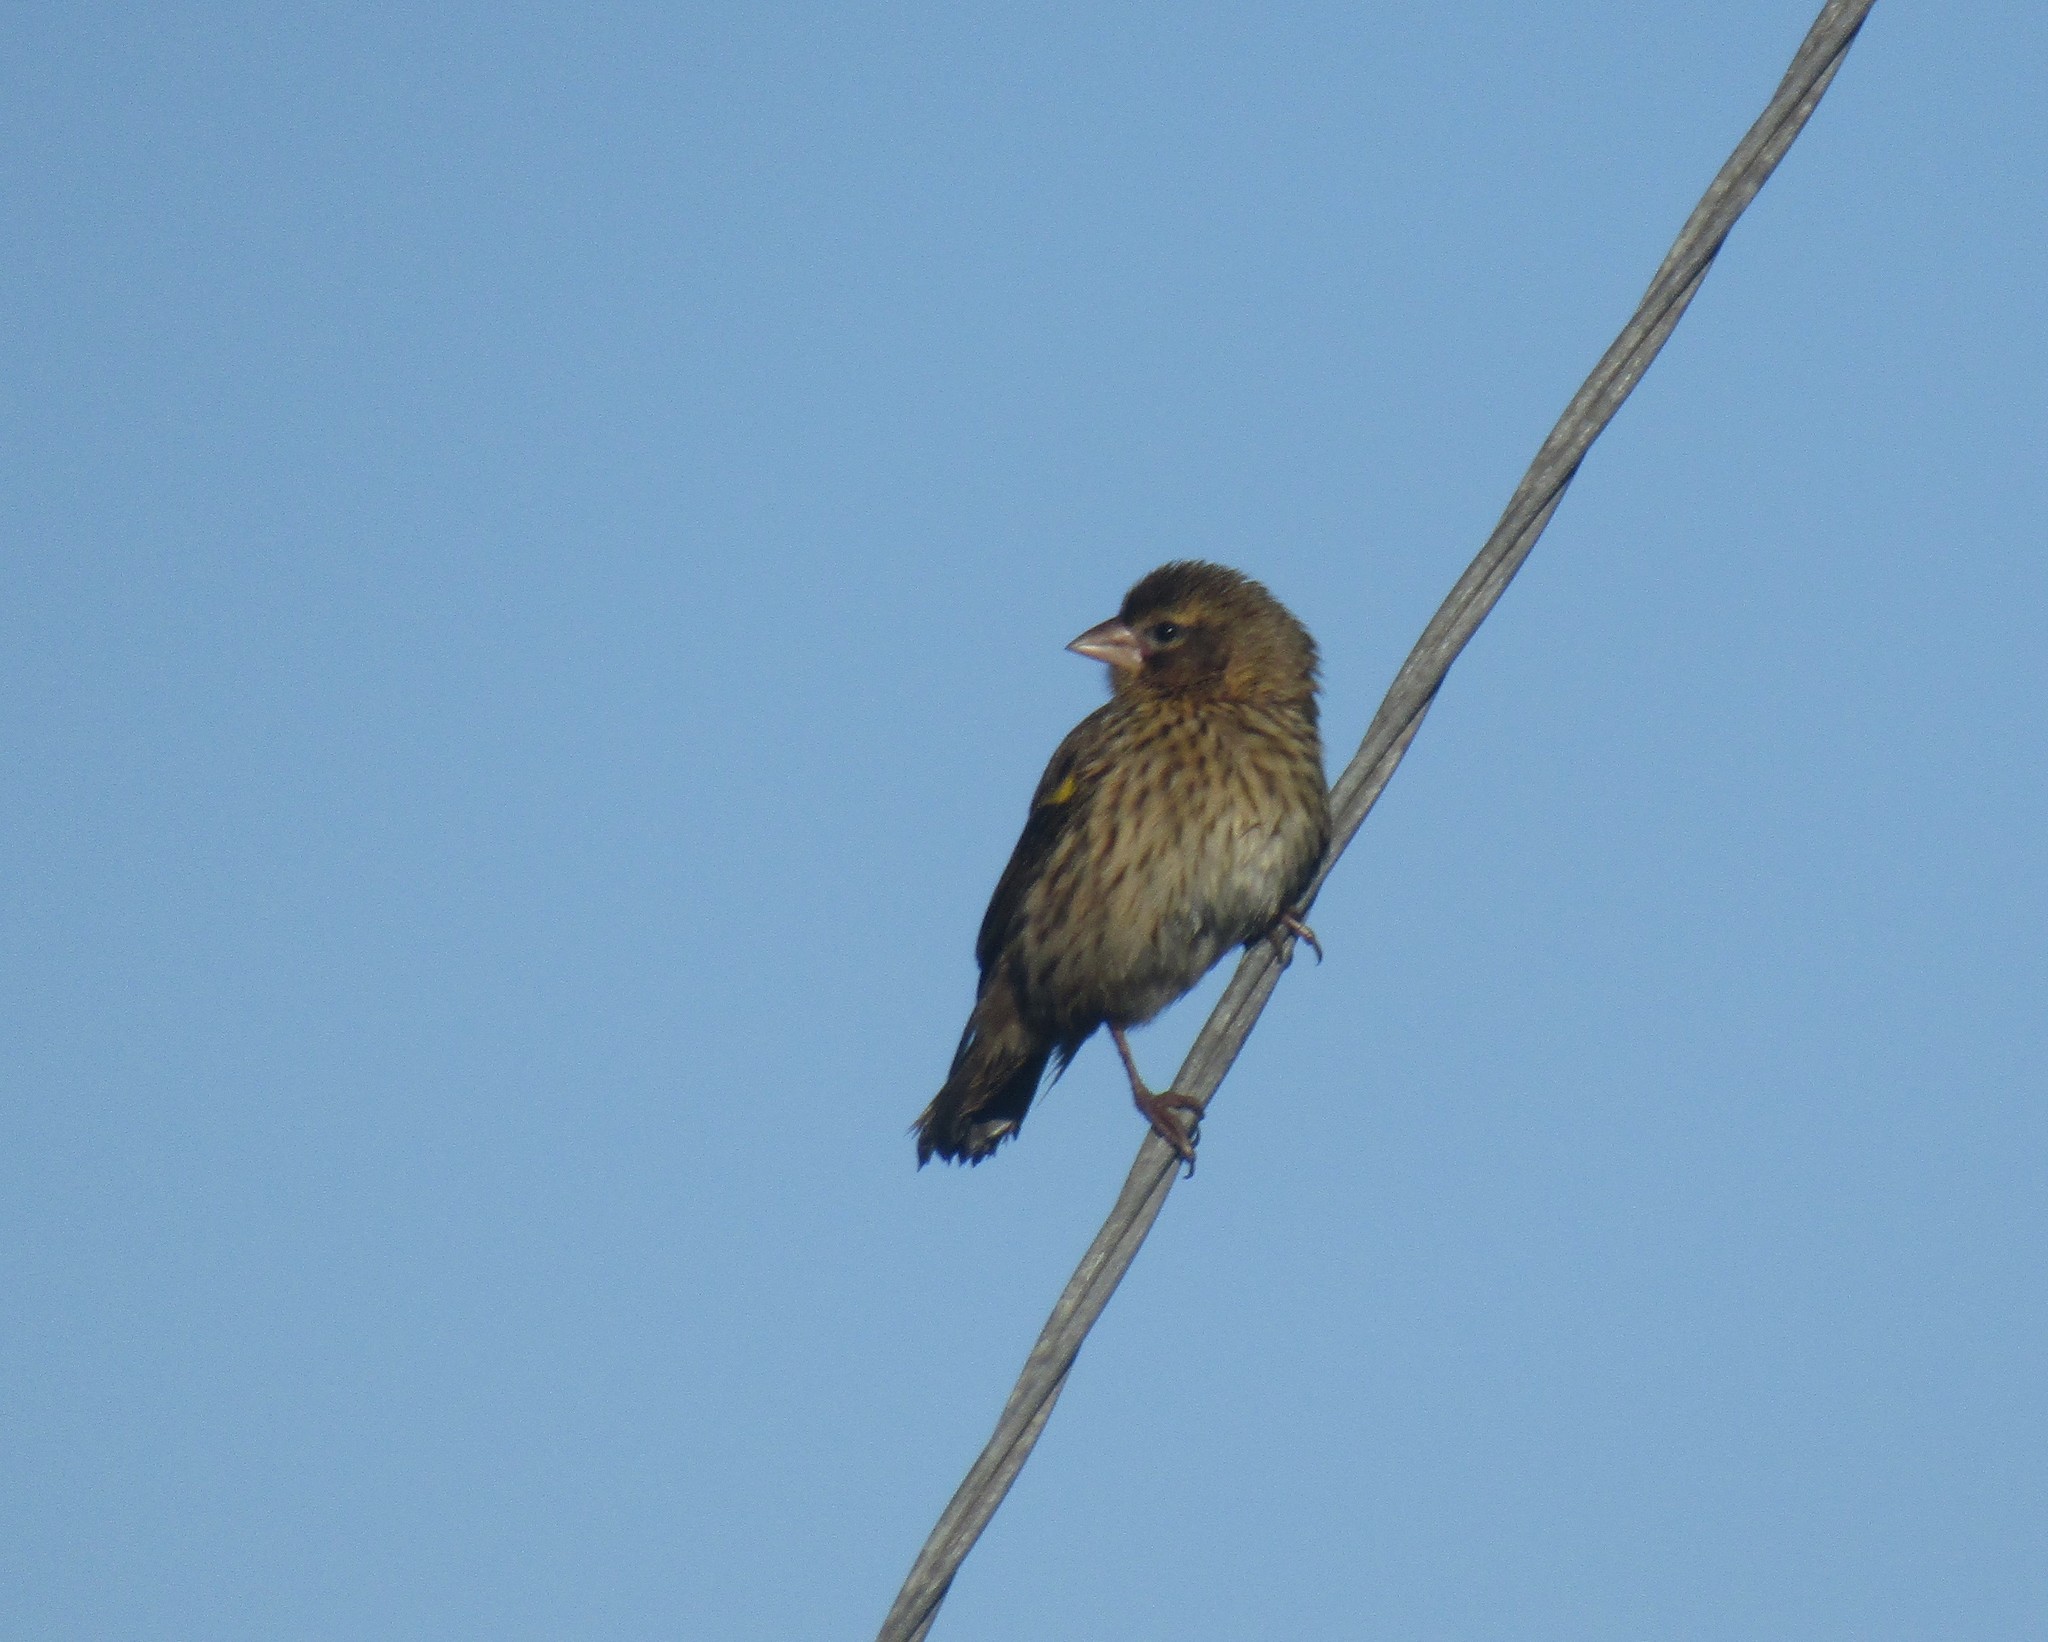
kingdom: Animalia
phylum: Chordata
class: Aves
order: Passeriformes
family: Ploceidae
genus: Euplectes
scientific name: Euplectes capensis
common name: Yellow bishop
